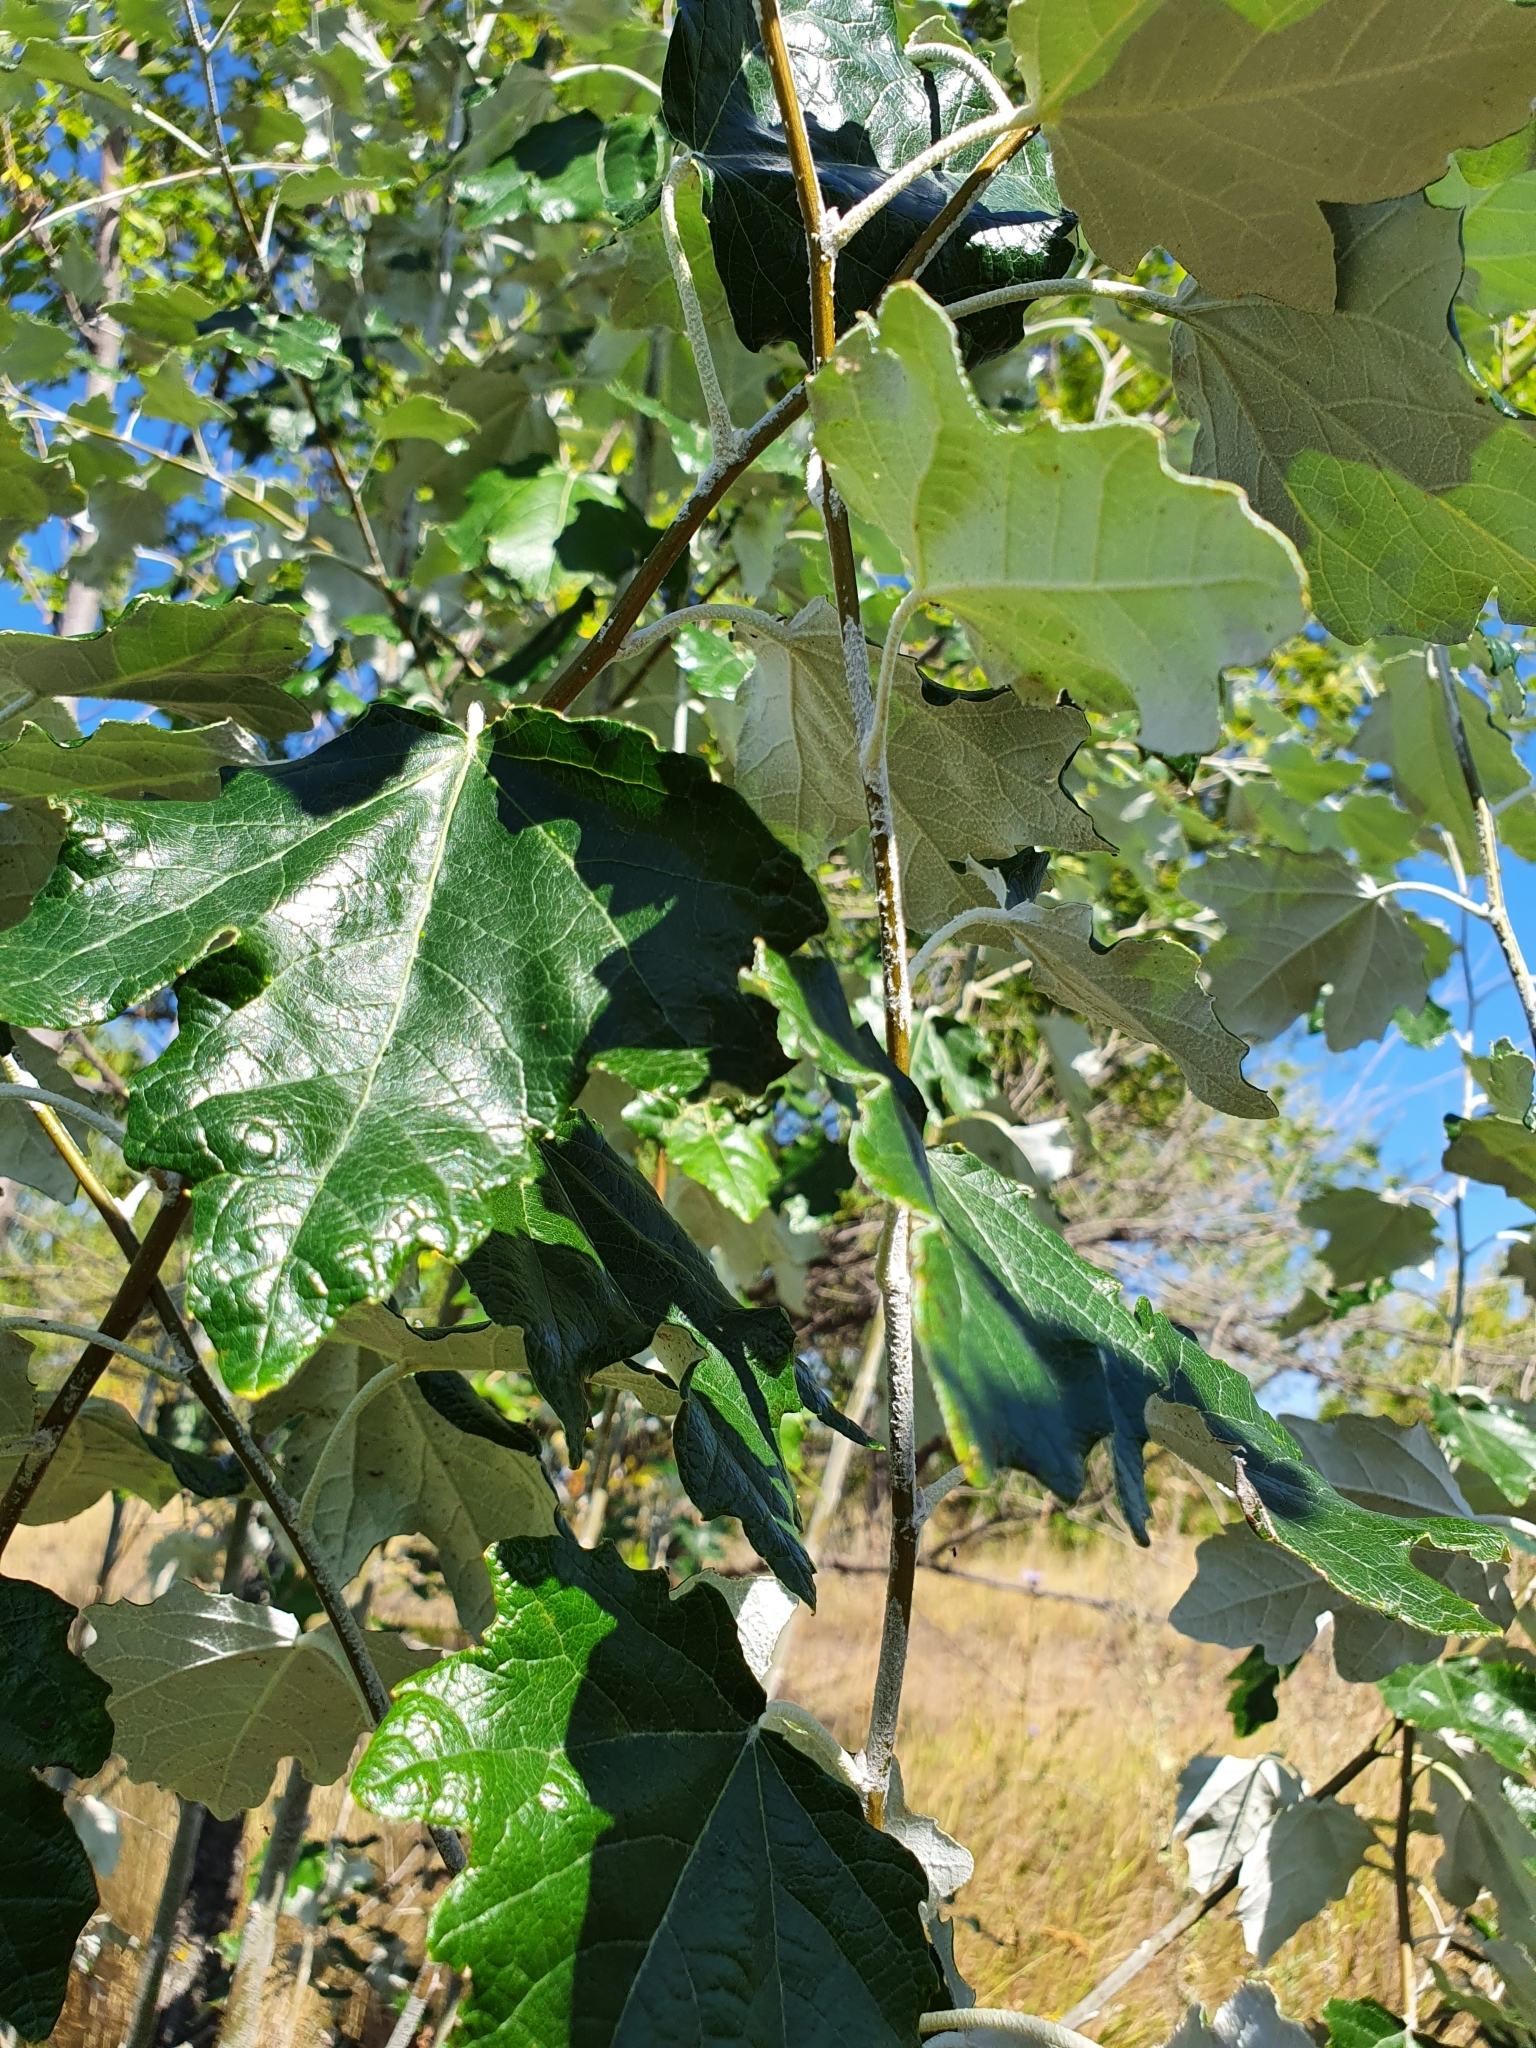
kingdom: Plantae
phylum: Tracheophyta
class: Magnoliopsida
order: Malpighiales
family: Salicaceae
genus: Populus
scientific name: Populus alba
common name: White poplar
